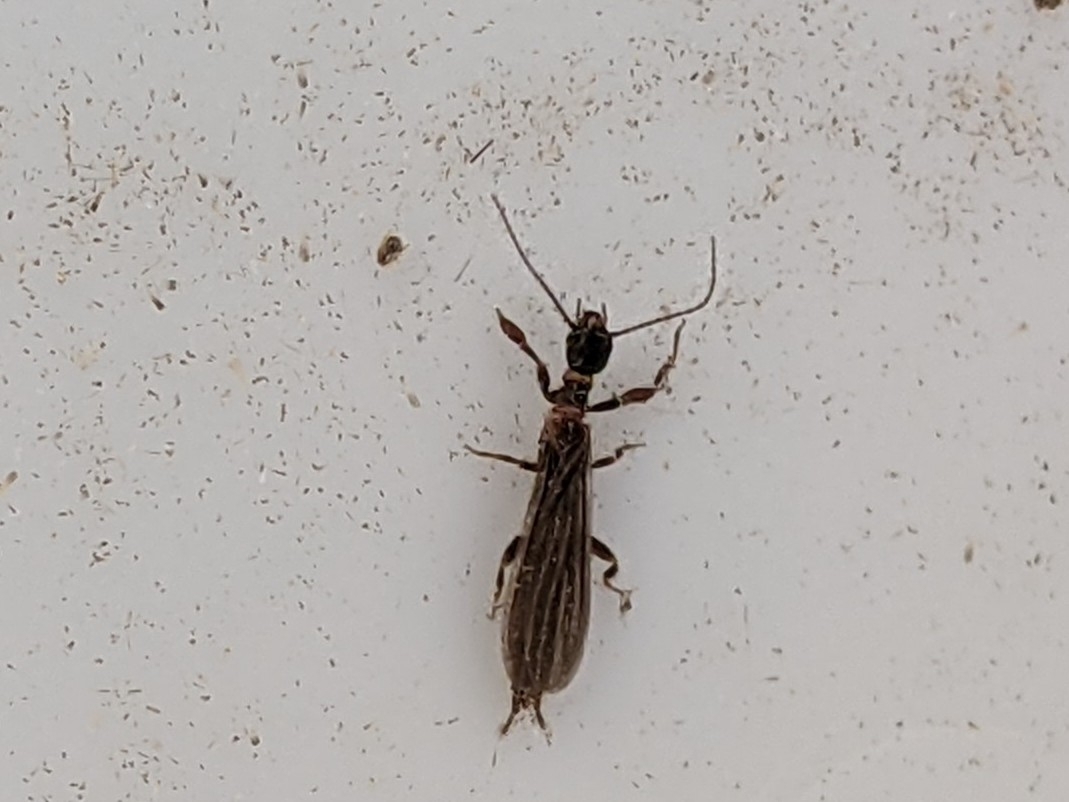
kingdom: Animalia
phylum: Arthropoda
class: Insecta
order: Embioptera
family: Oligotomidae
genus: Oligotoma
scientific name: Oligotoma nigra
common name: Black webspinner
